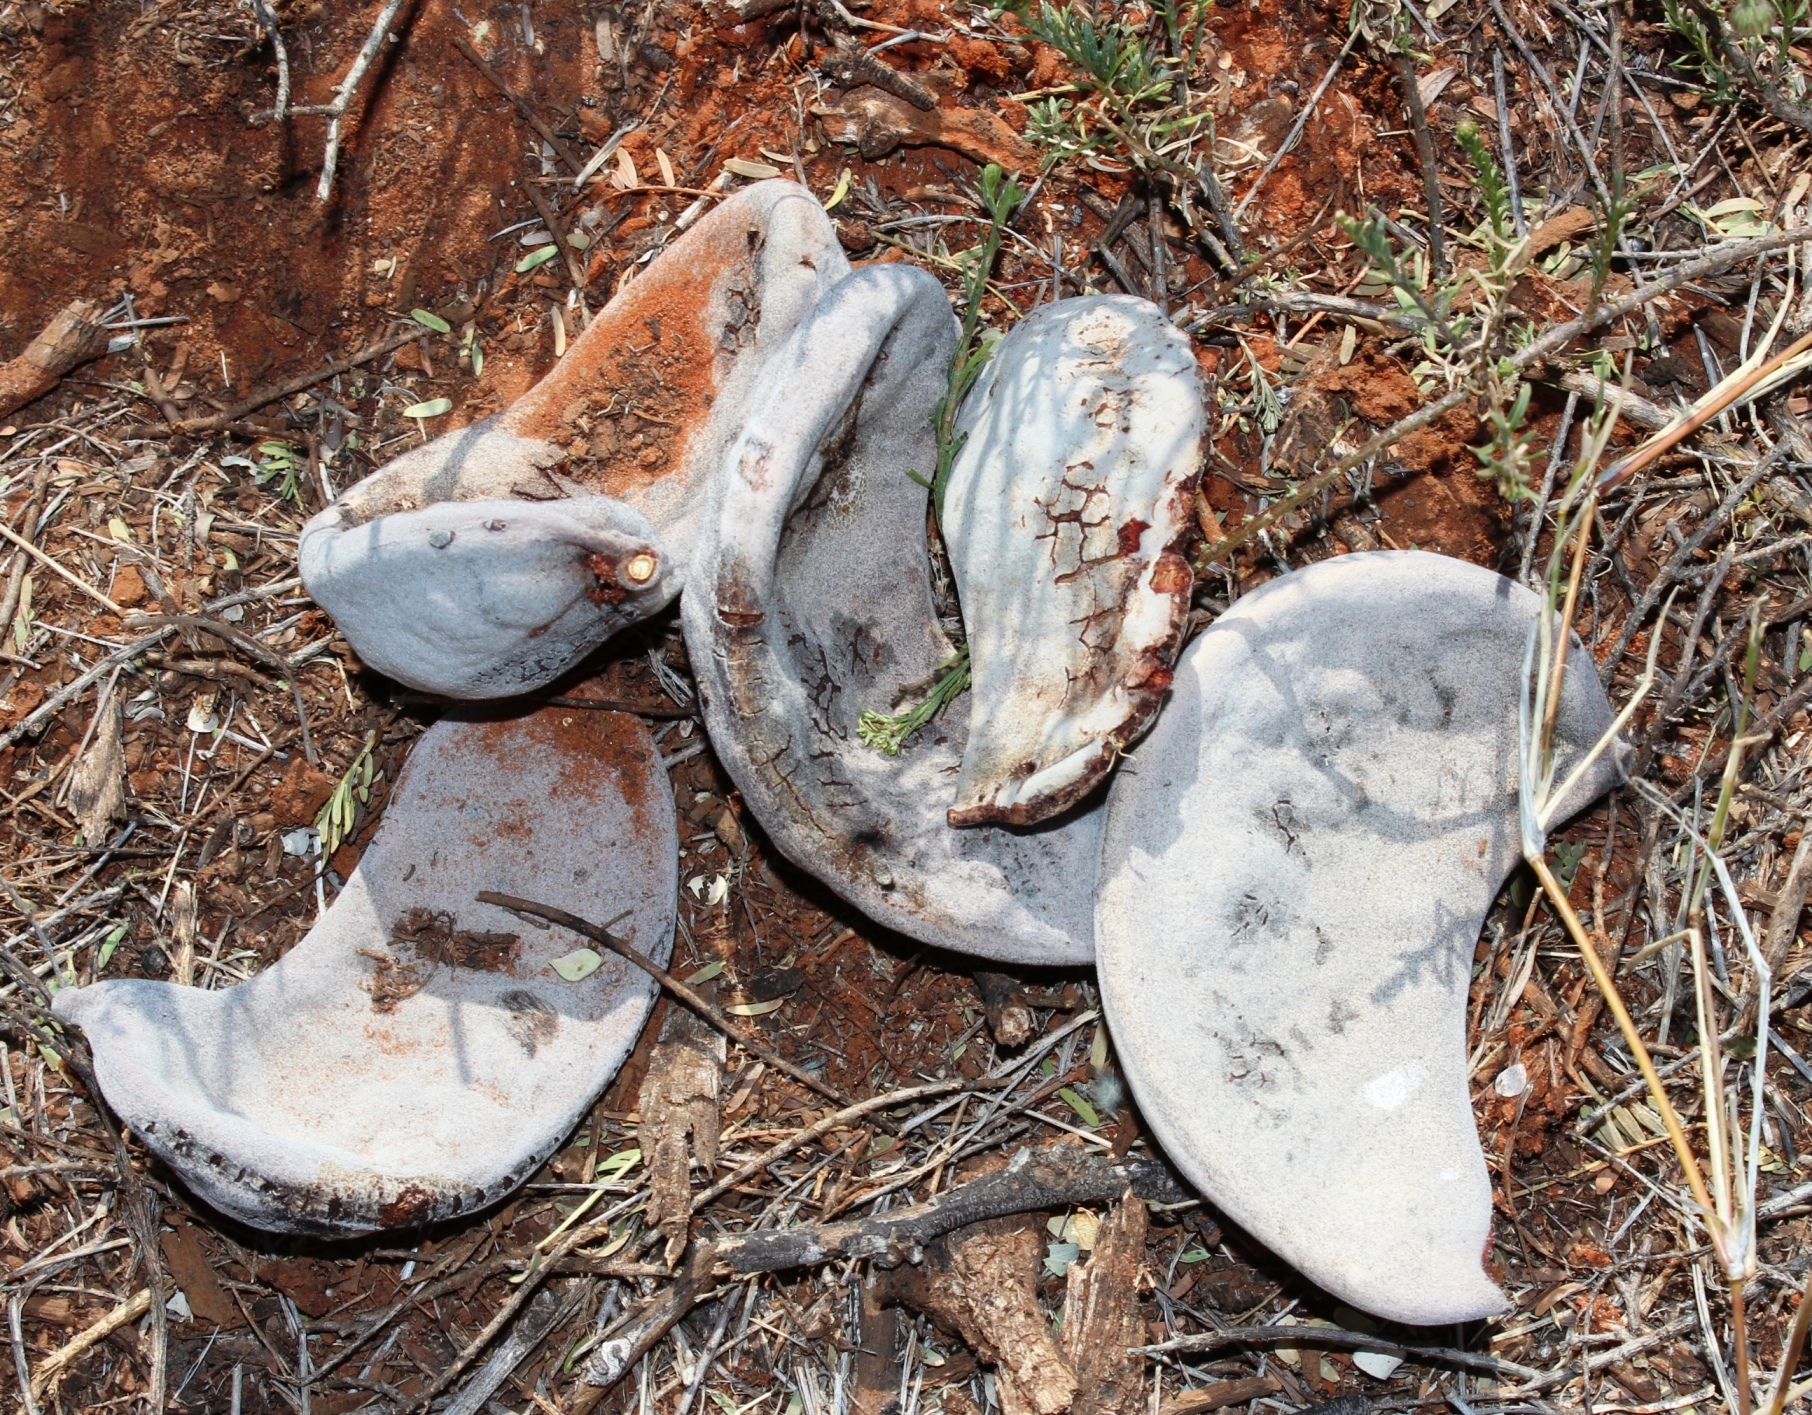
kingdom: Plantae
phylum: Tracheophyta
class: Magnoliopsida
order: Fabales
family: Fabaceae
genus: Vachellia
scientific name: Vachellia erioloba
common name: Camel thorn
